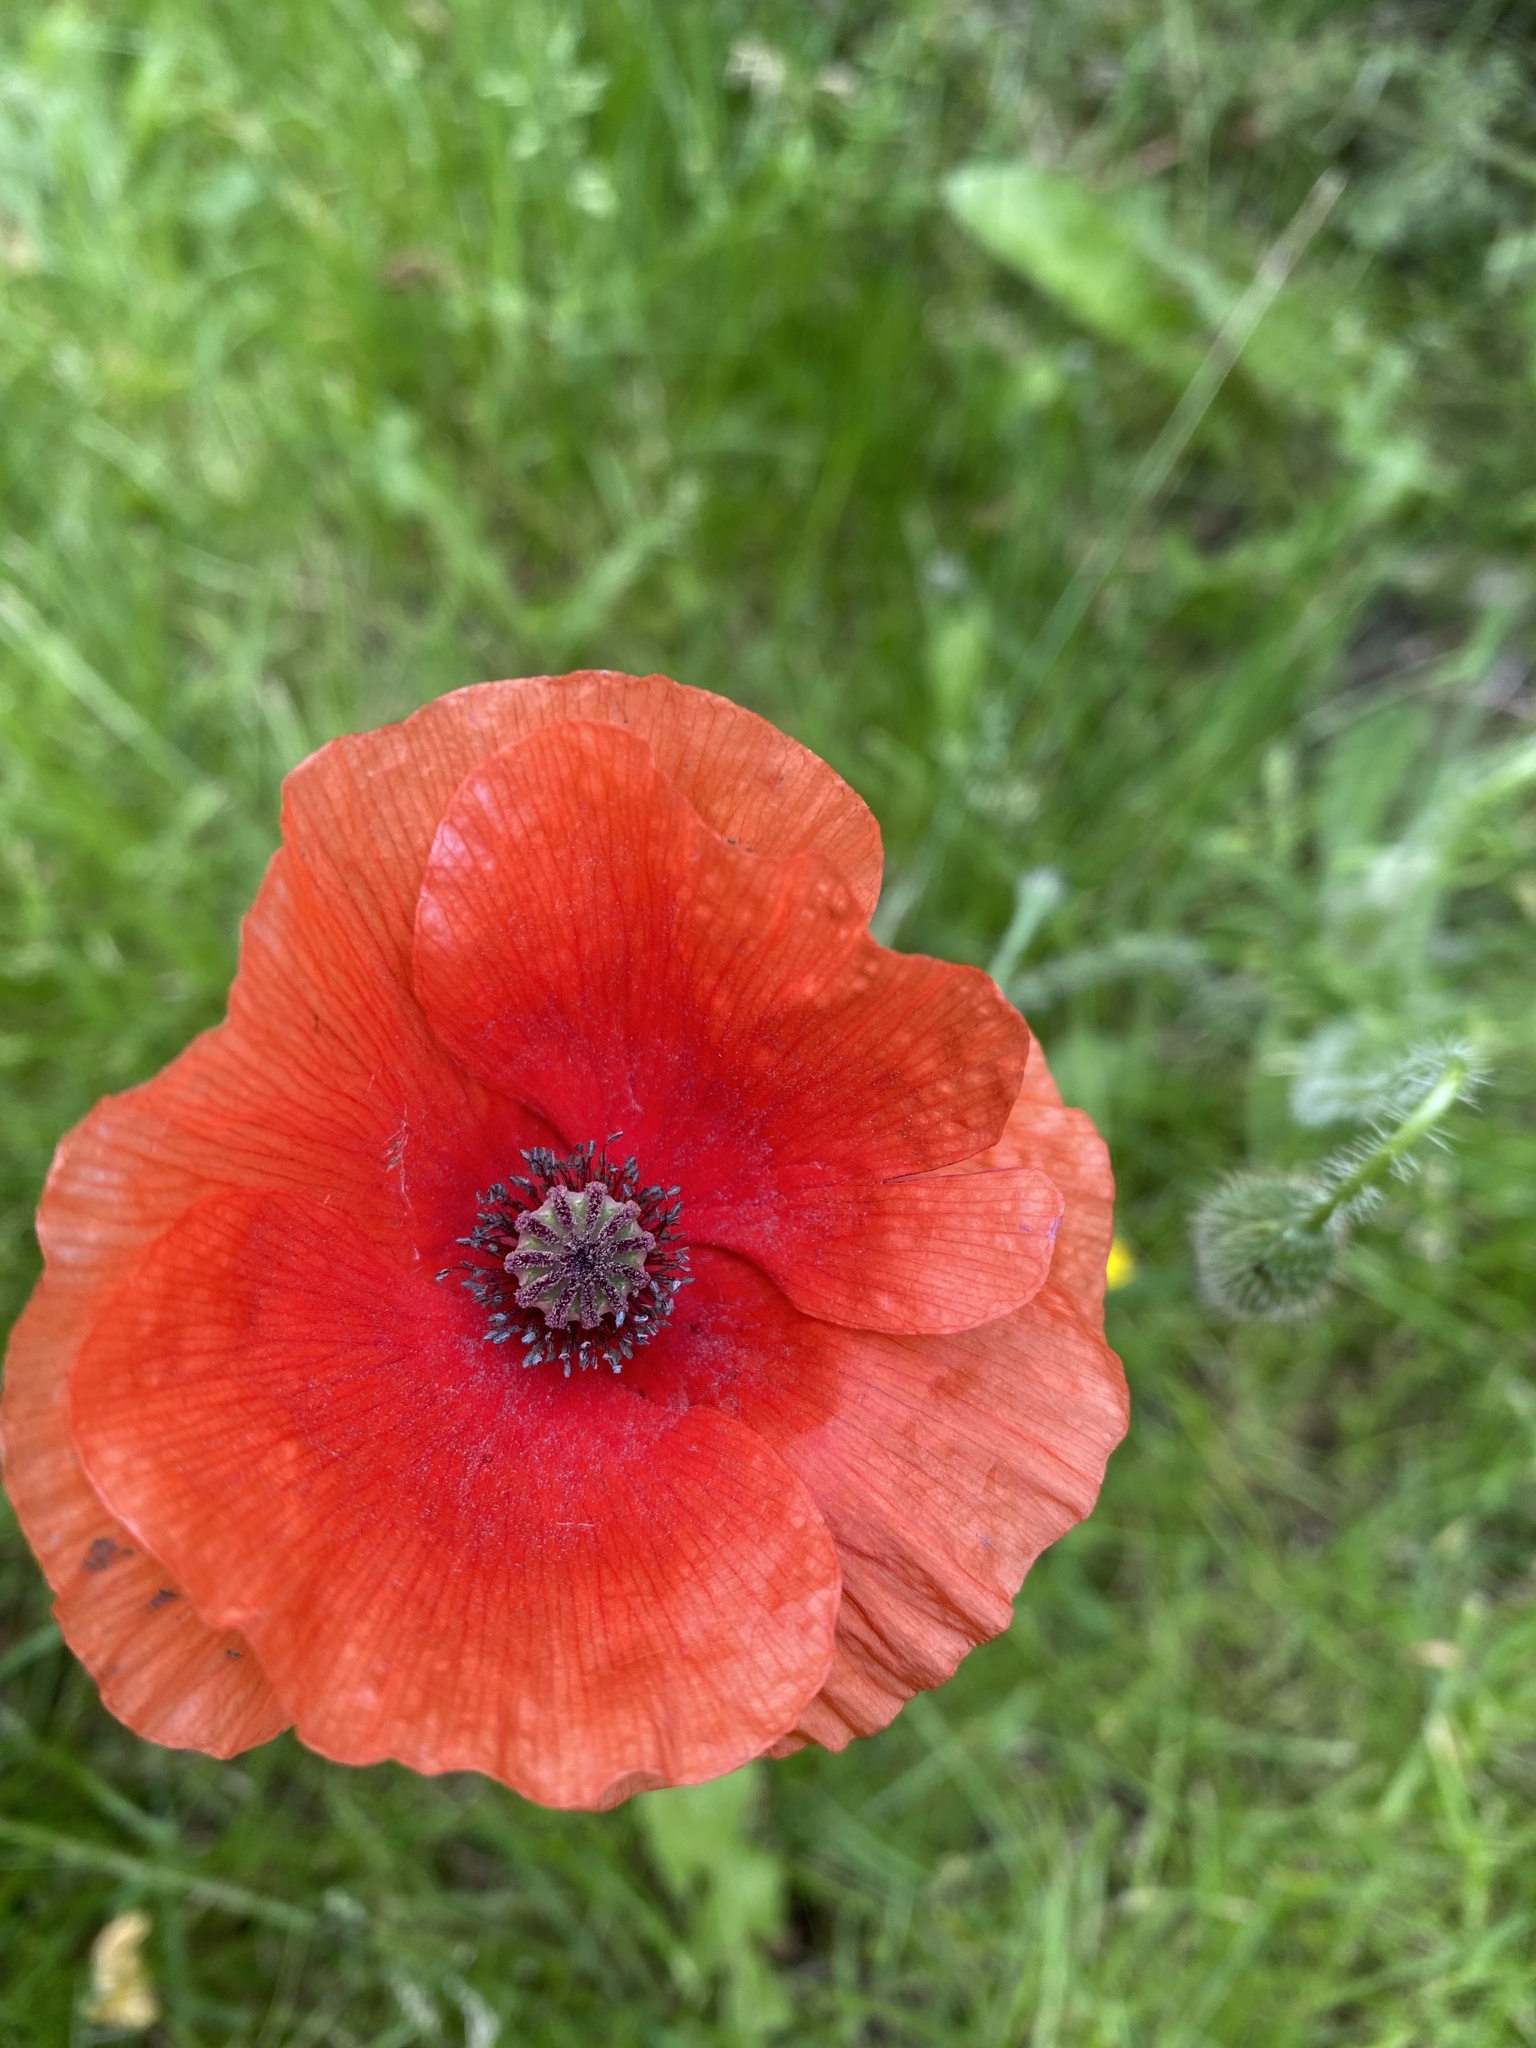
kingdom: Plantae
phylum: Tracheophyta
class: Magnoliopsida
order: Ranunculales
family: Papaveraceae
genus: Papaver
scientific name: Papaver rhoeas
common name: Corn poppy
